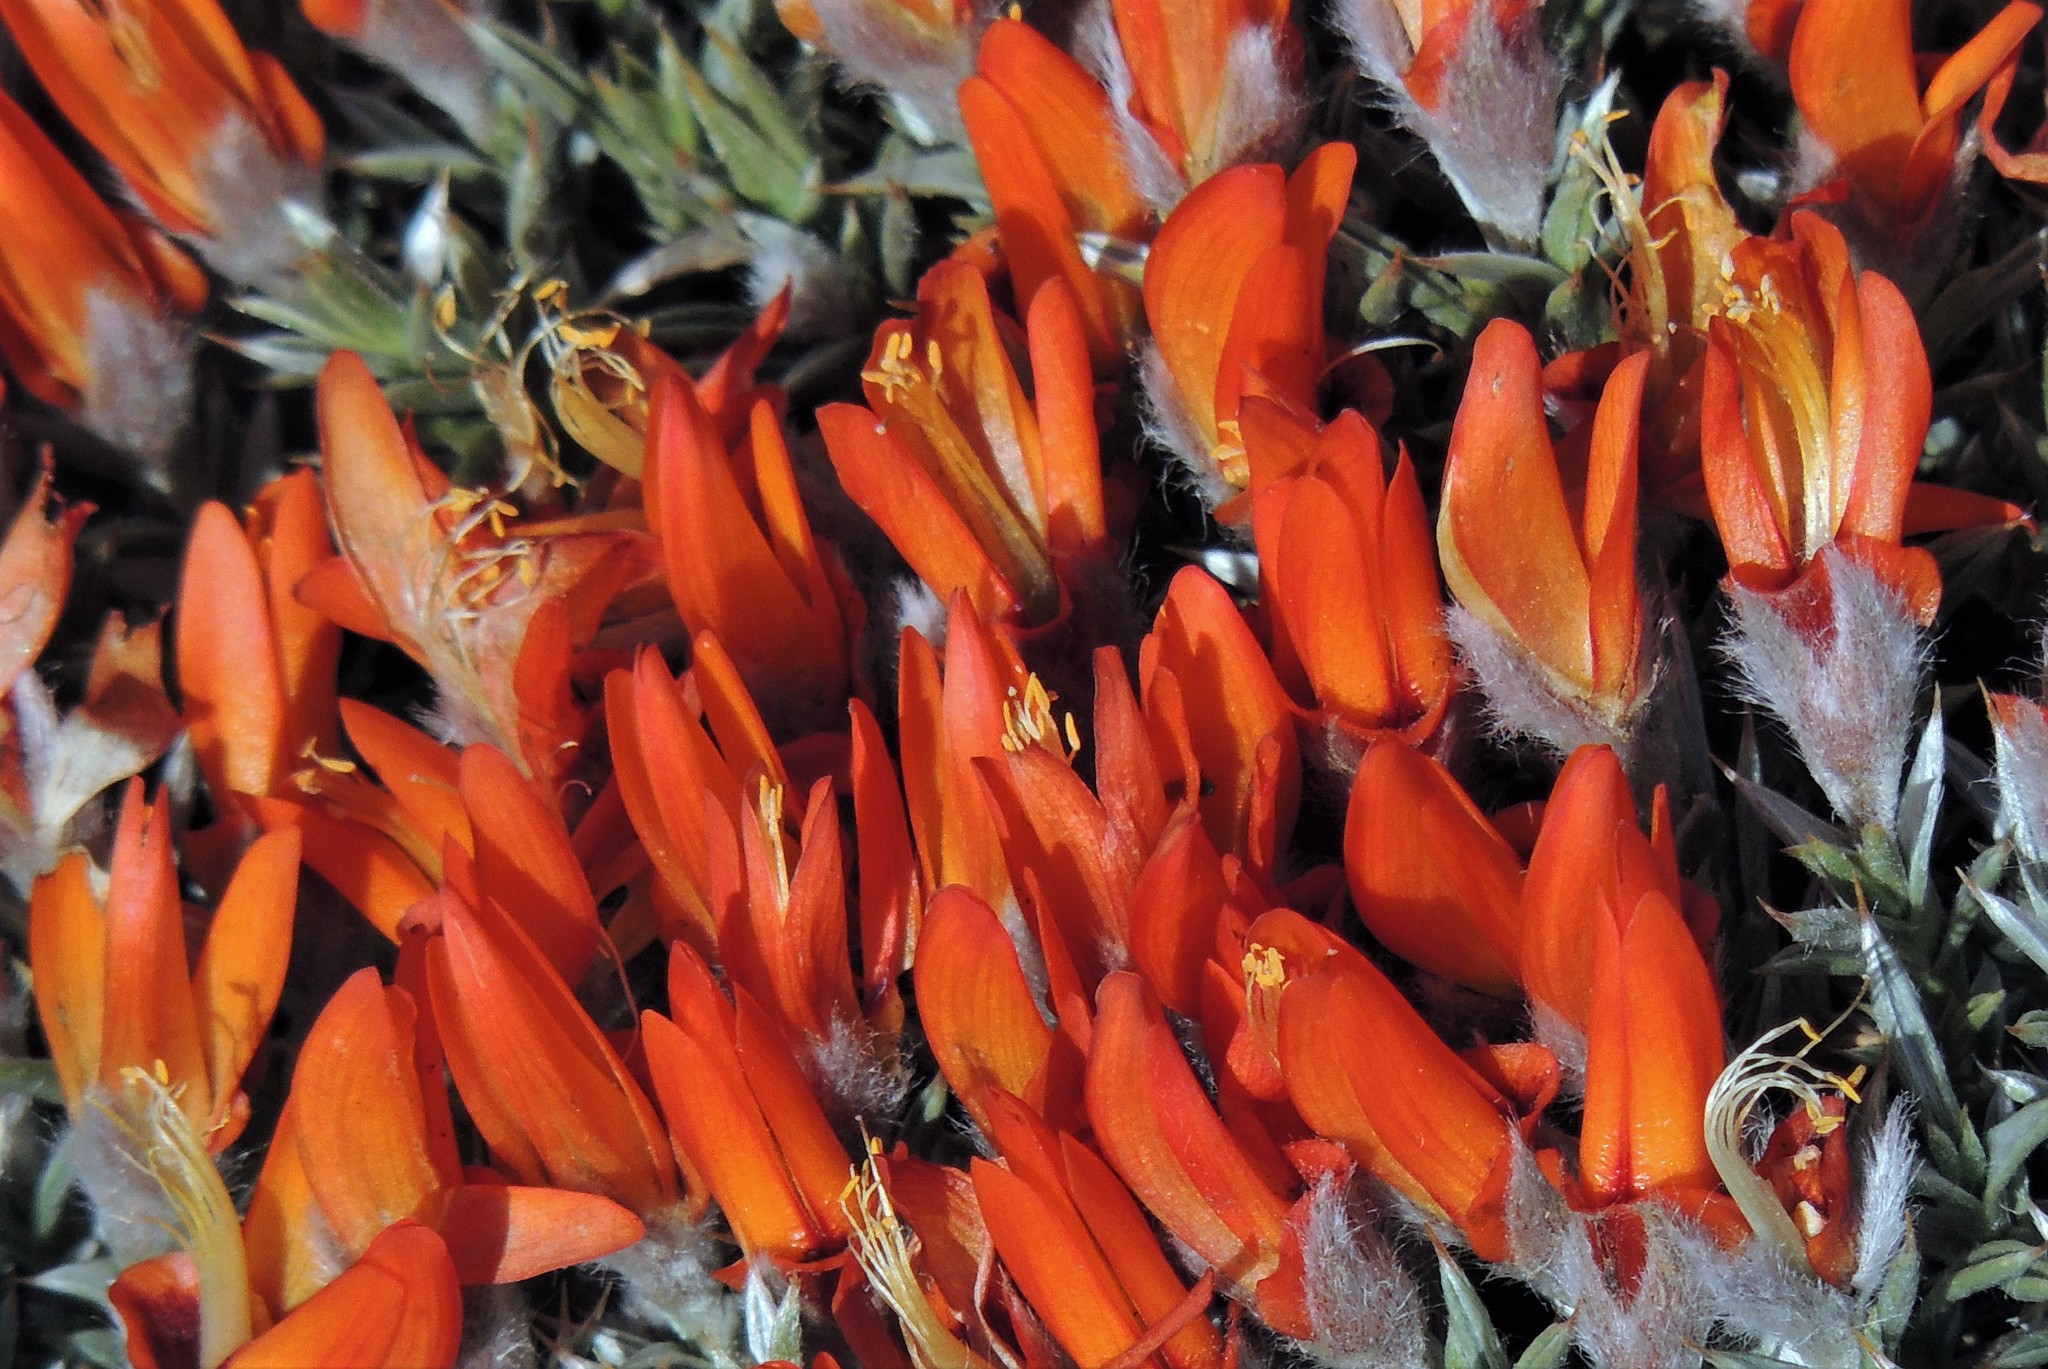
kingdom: Plantae
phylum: Tracheophyta
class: Magnoliopsida
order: Fabales
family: Fabaceae
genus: Anarthrophyllum
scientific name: Anarthrophyllum desideratum
